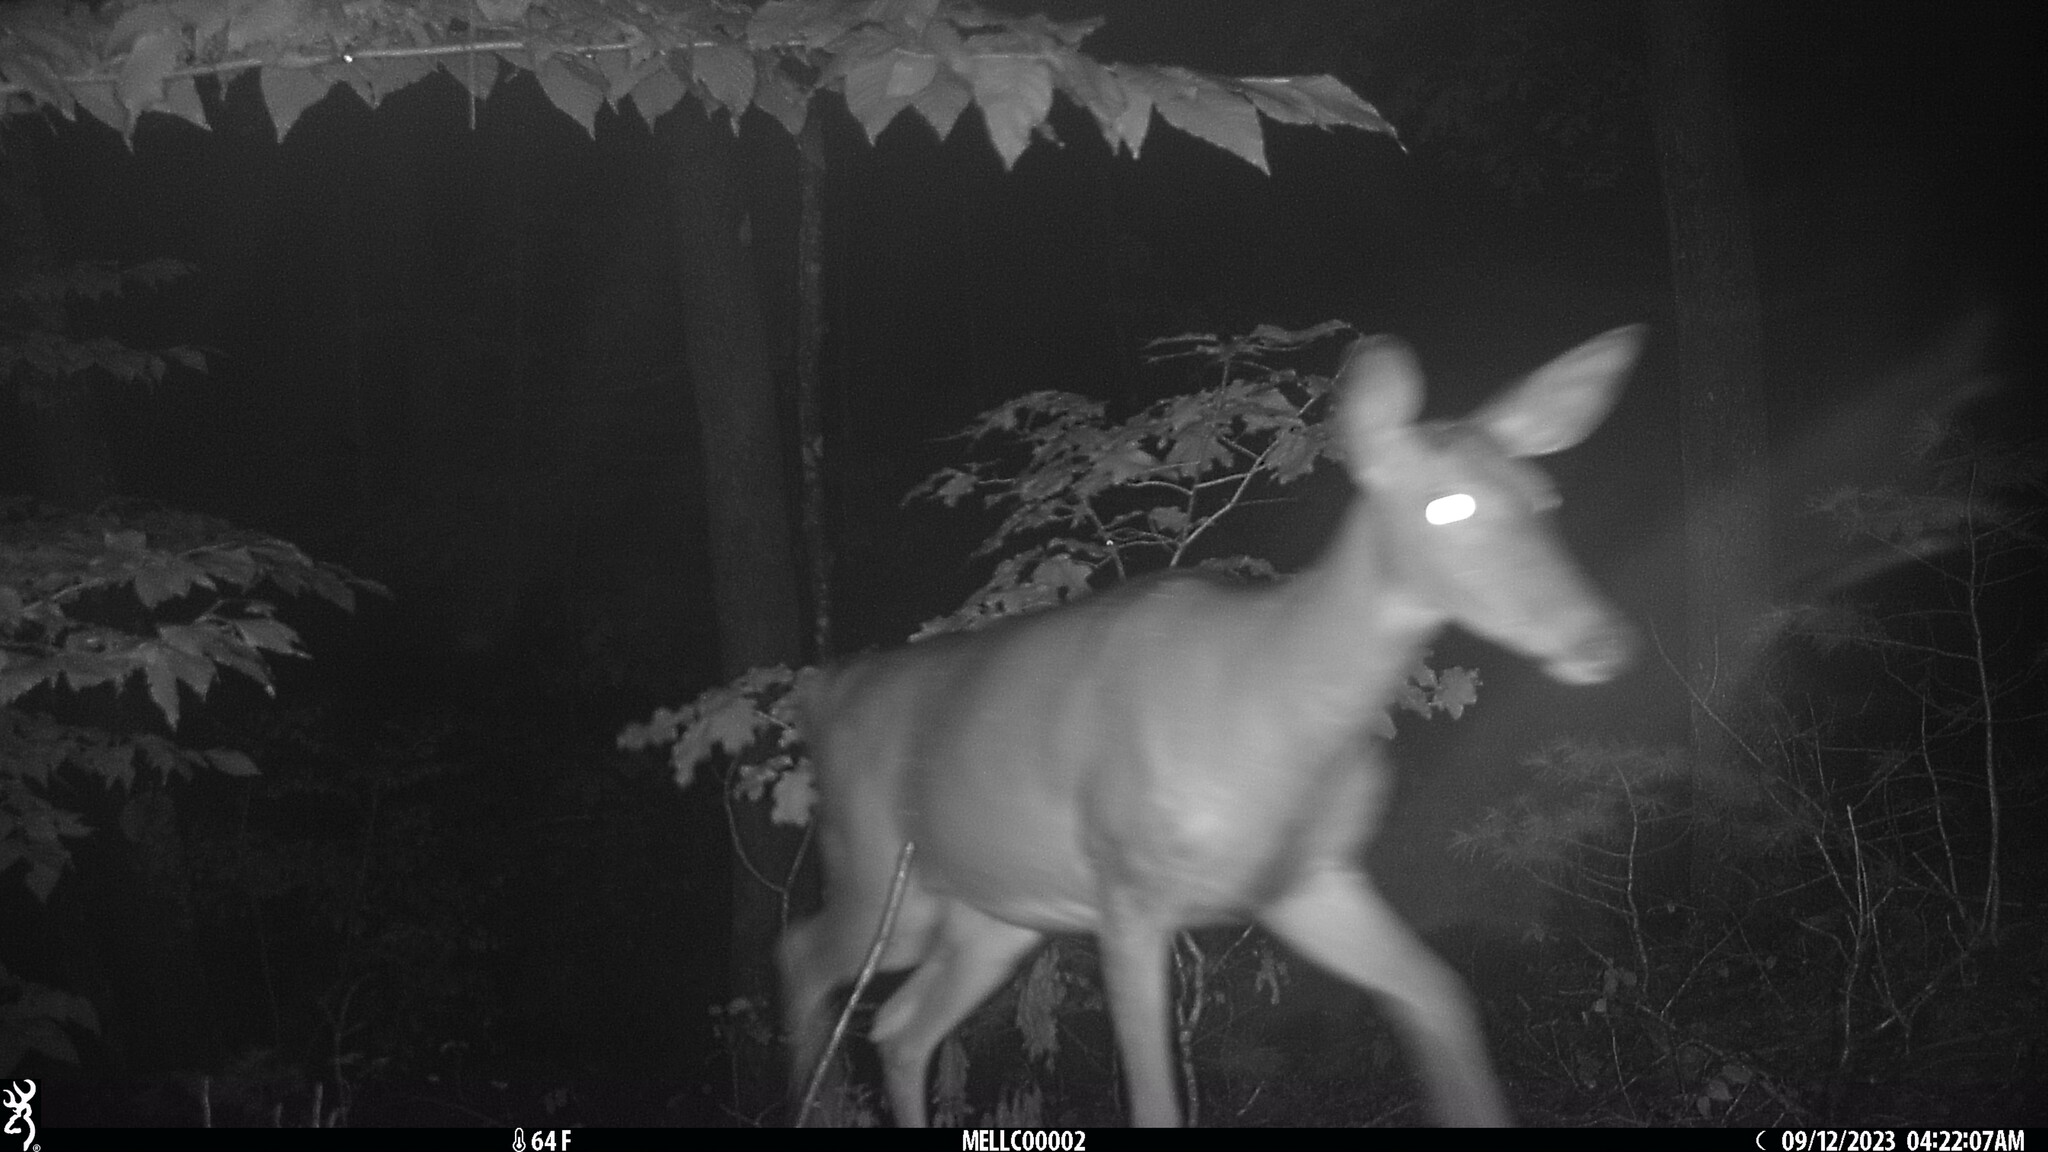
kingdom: Animalia
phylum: Chordata
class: Mammalia
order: Artiodactyla
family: Cervidae
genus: Odocoileus
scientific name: Odocoileus virginianus
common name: White-tailed deer
